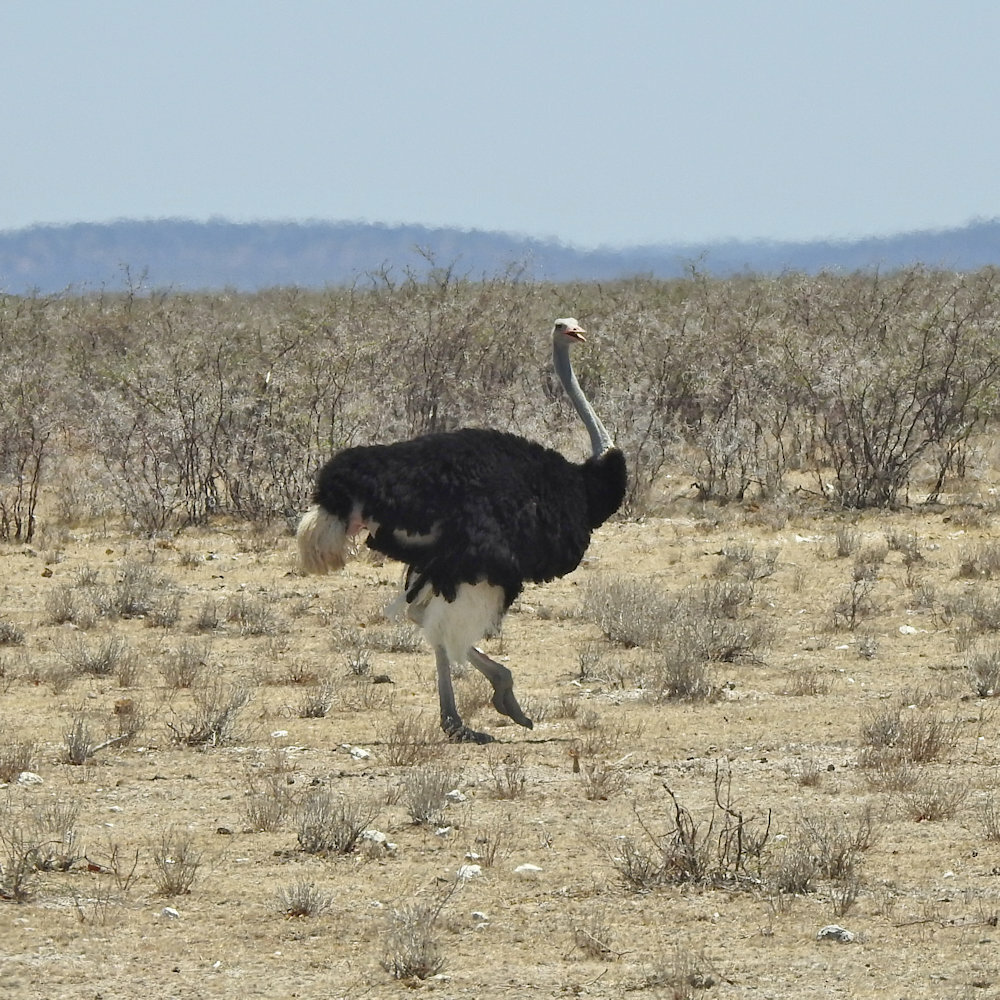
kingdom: Animalia
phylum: Chordata
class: Aves
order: Struthioniformes
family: Struthionidae
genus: Struthio
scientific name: Struthio camelus
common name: Common ostrich
